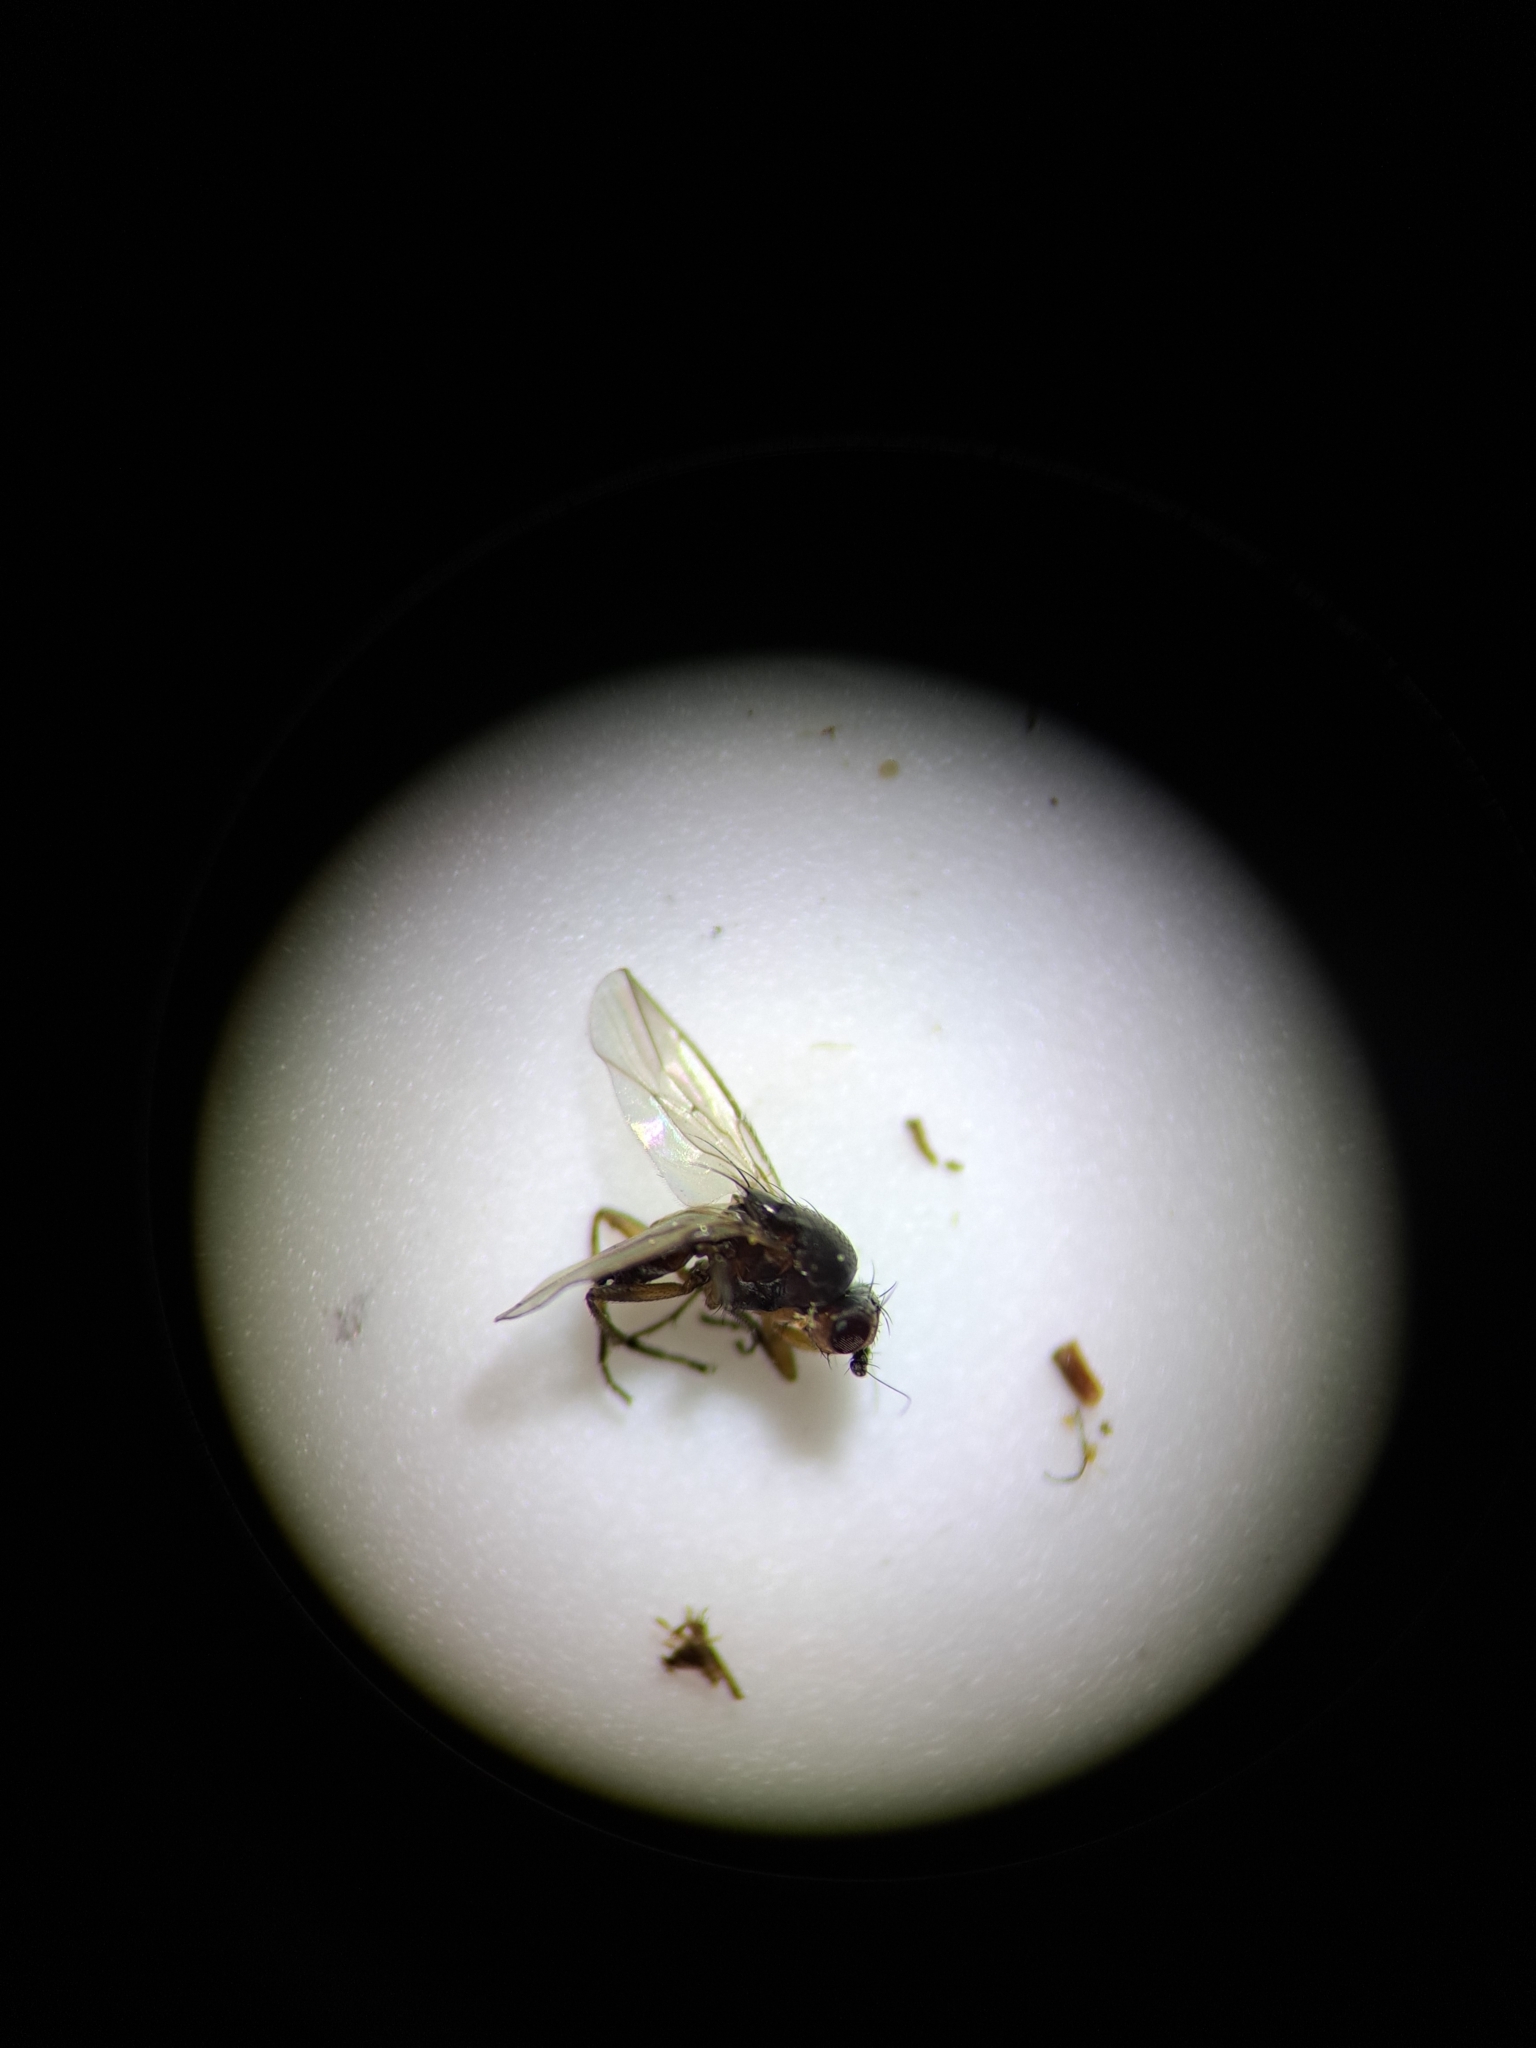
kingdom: Animalia
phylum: Arthropoda
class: Insecta
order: Diptera
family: Sphaeroceridae
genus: Spelobia
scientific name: Spelobia ochripes
